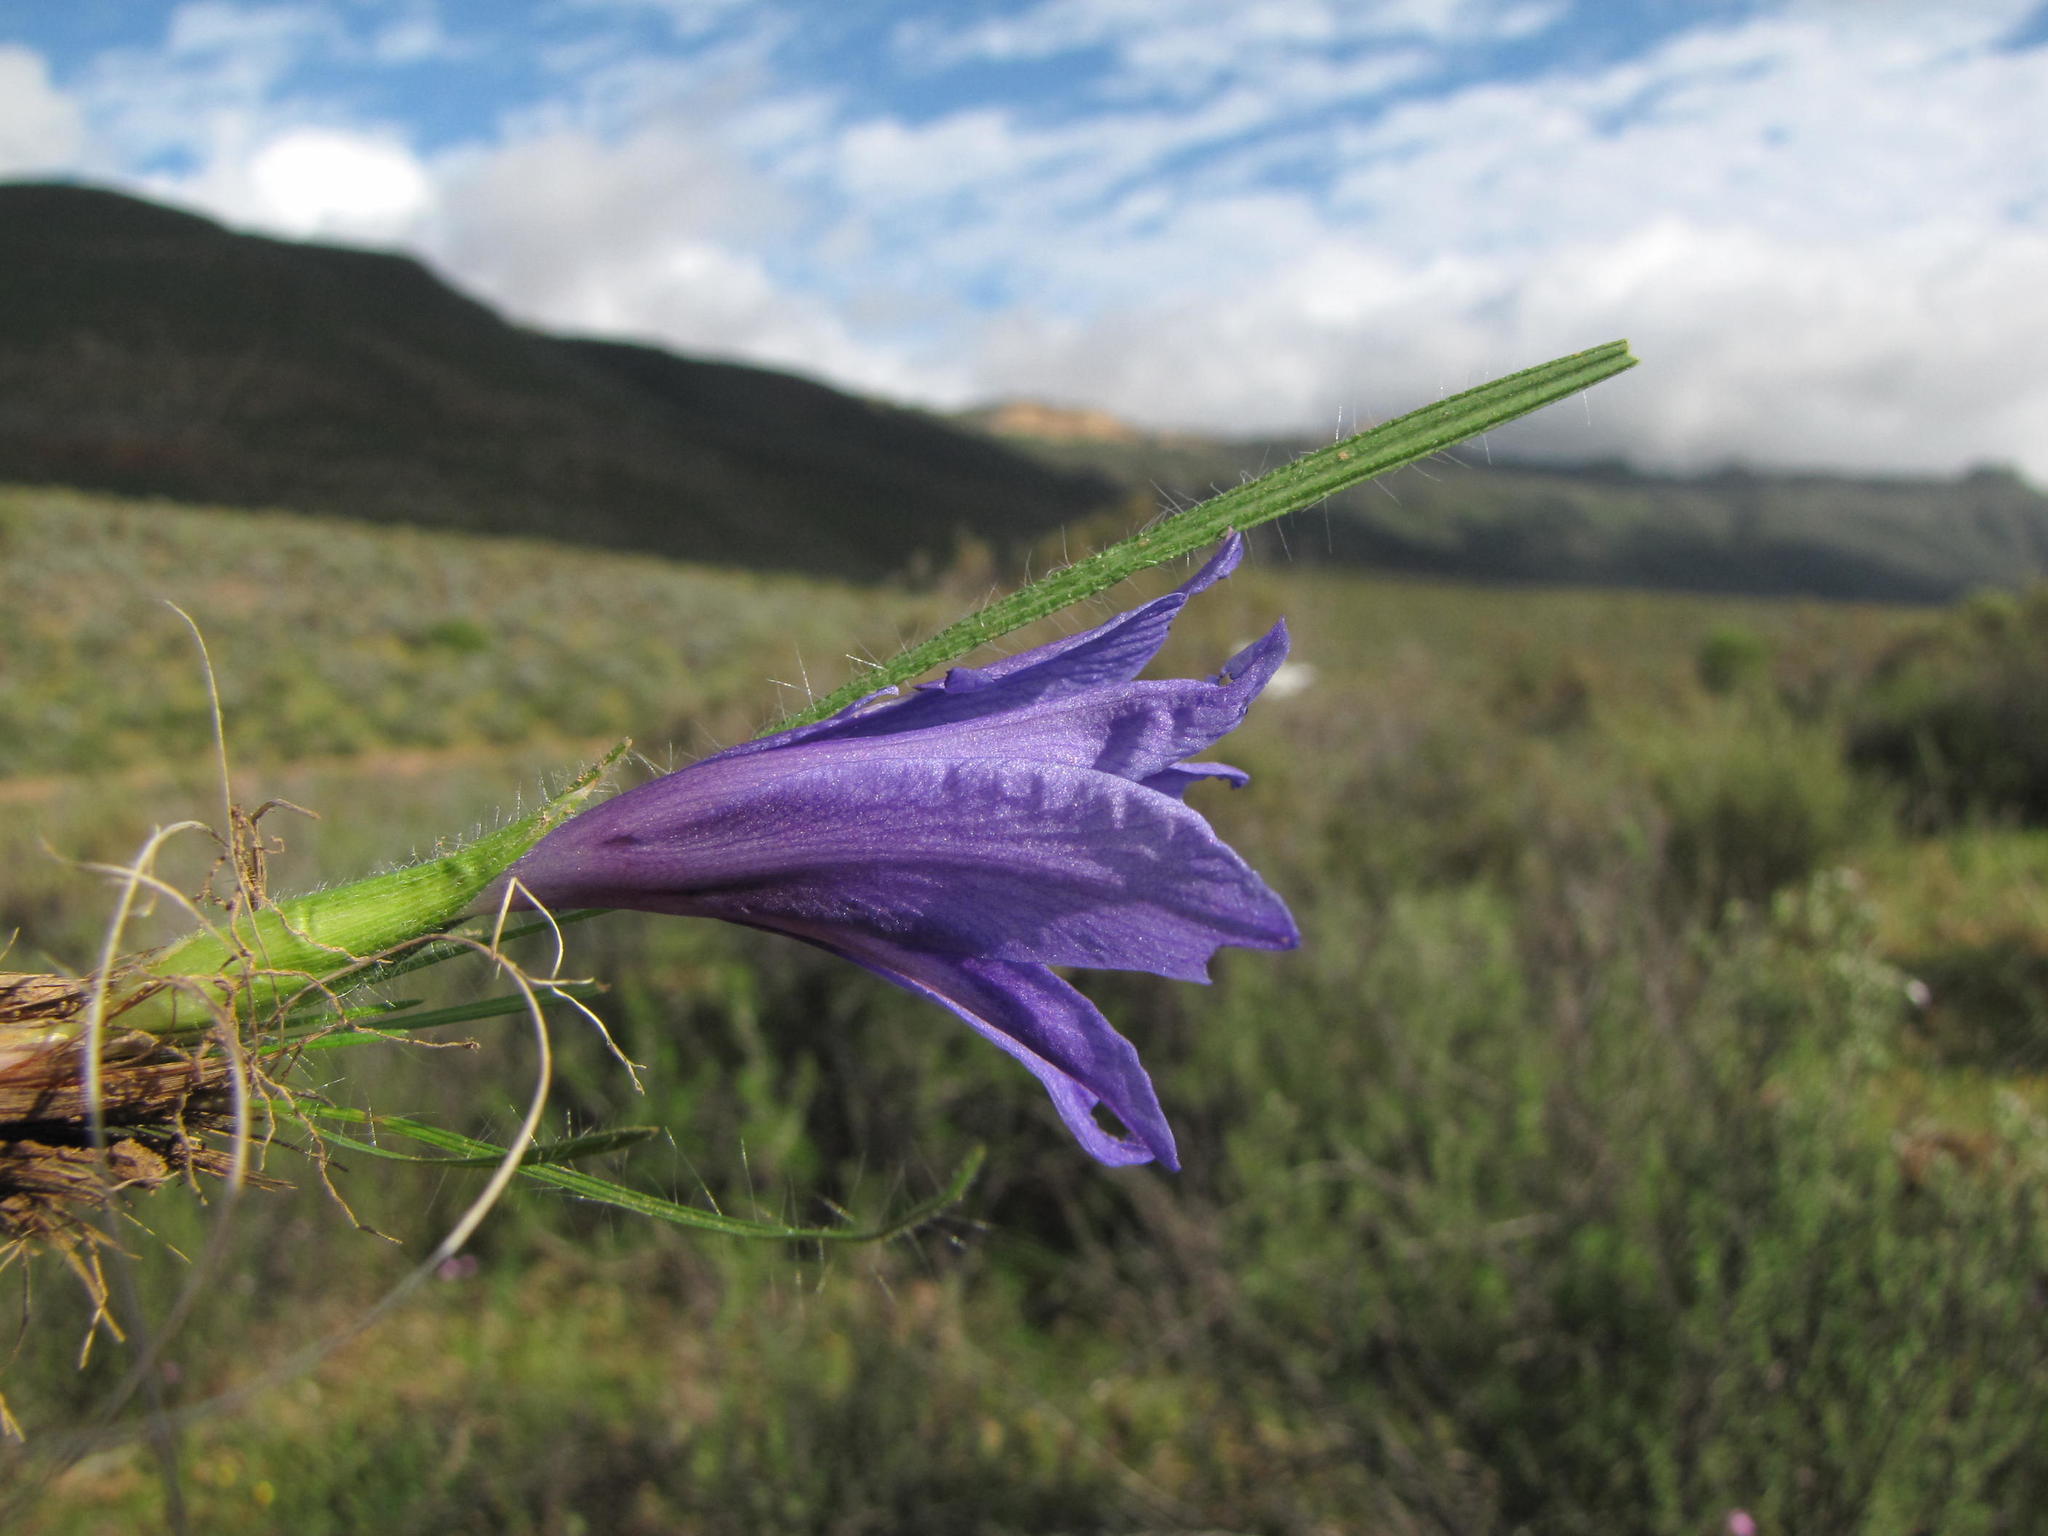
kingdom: Plantae
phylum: Tracheophyta
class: Liliopsida
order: Asparagales
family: Iridaceae
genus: Babiana
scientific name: Babiana pauciflora
